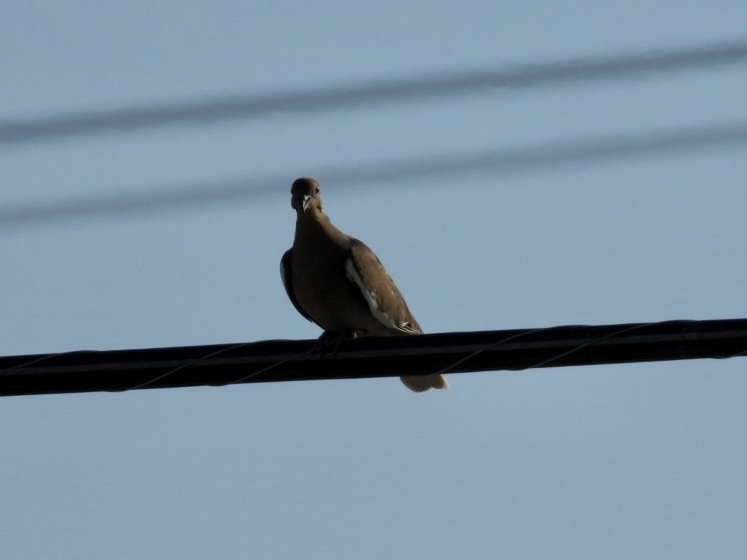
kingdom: Animalia
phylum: Chordata
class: Aves
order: Columbiformes
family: Columbidae
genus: Zenaida
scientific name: Zenaida asiatica
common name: White-winged dove
